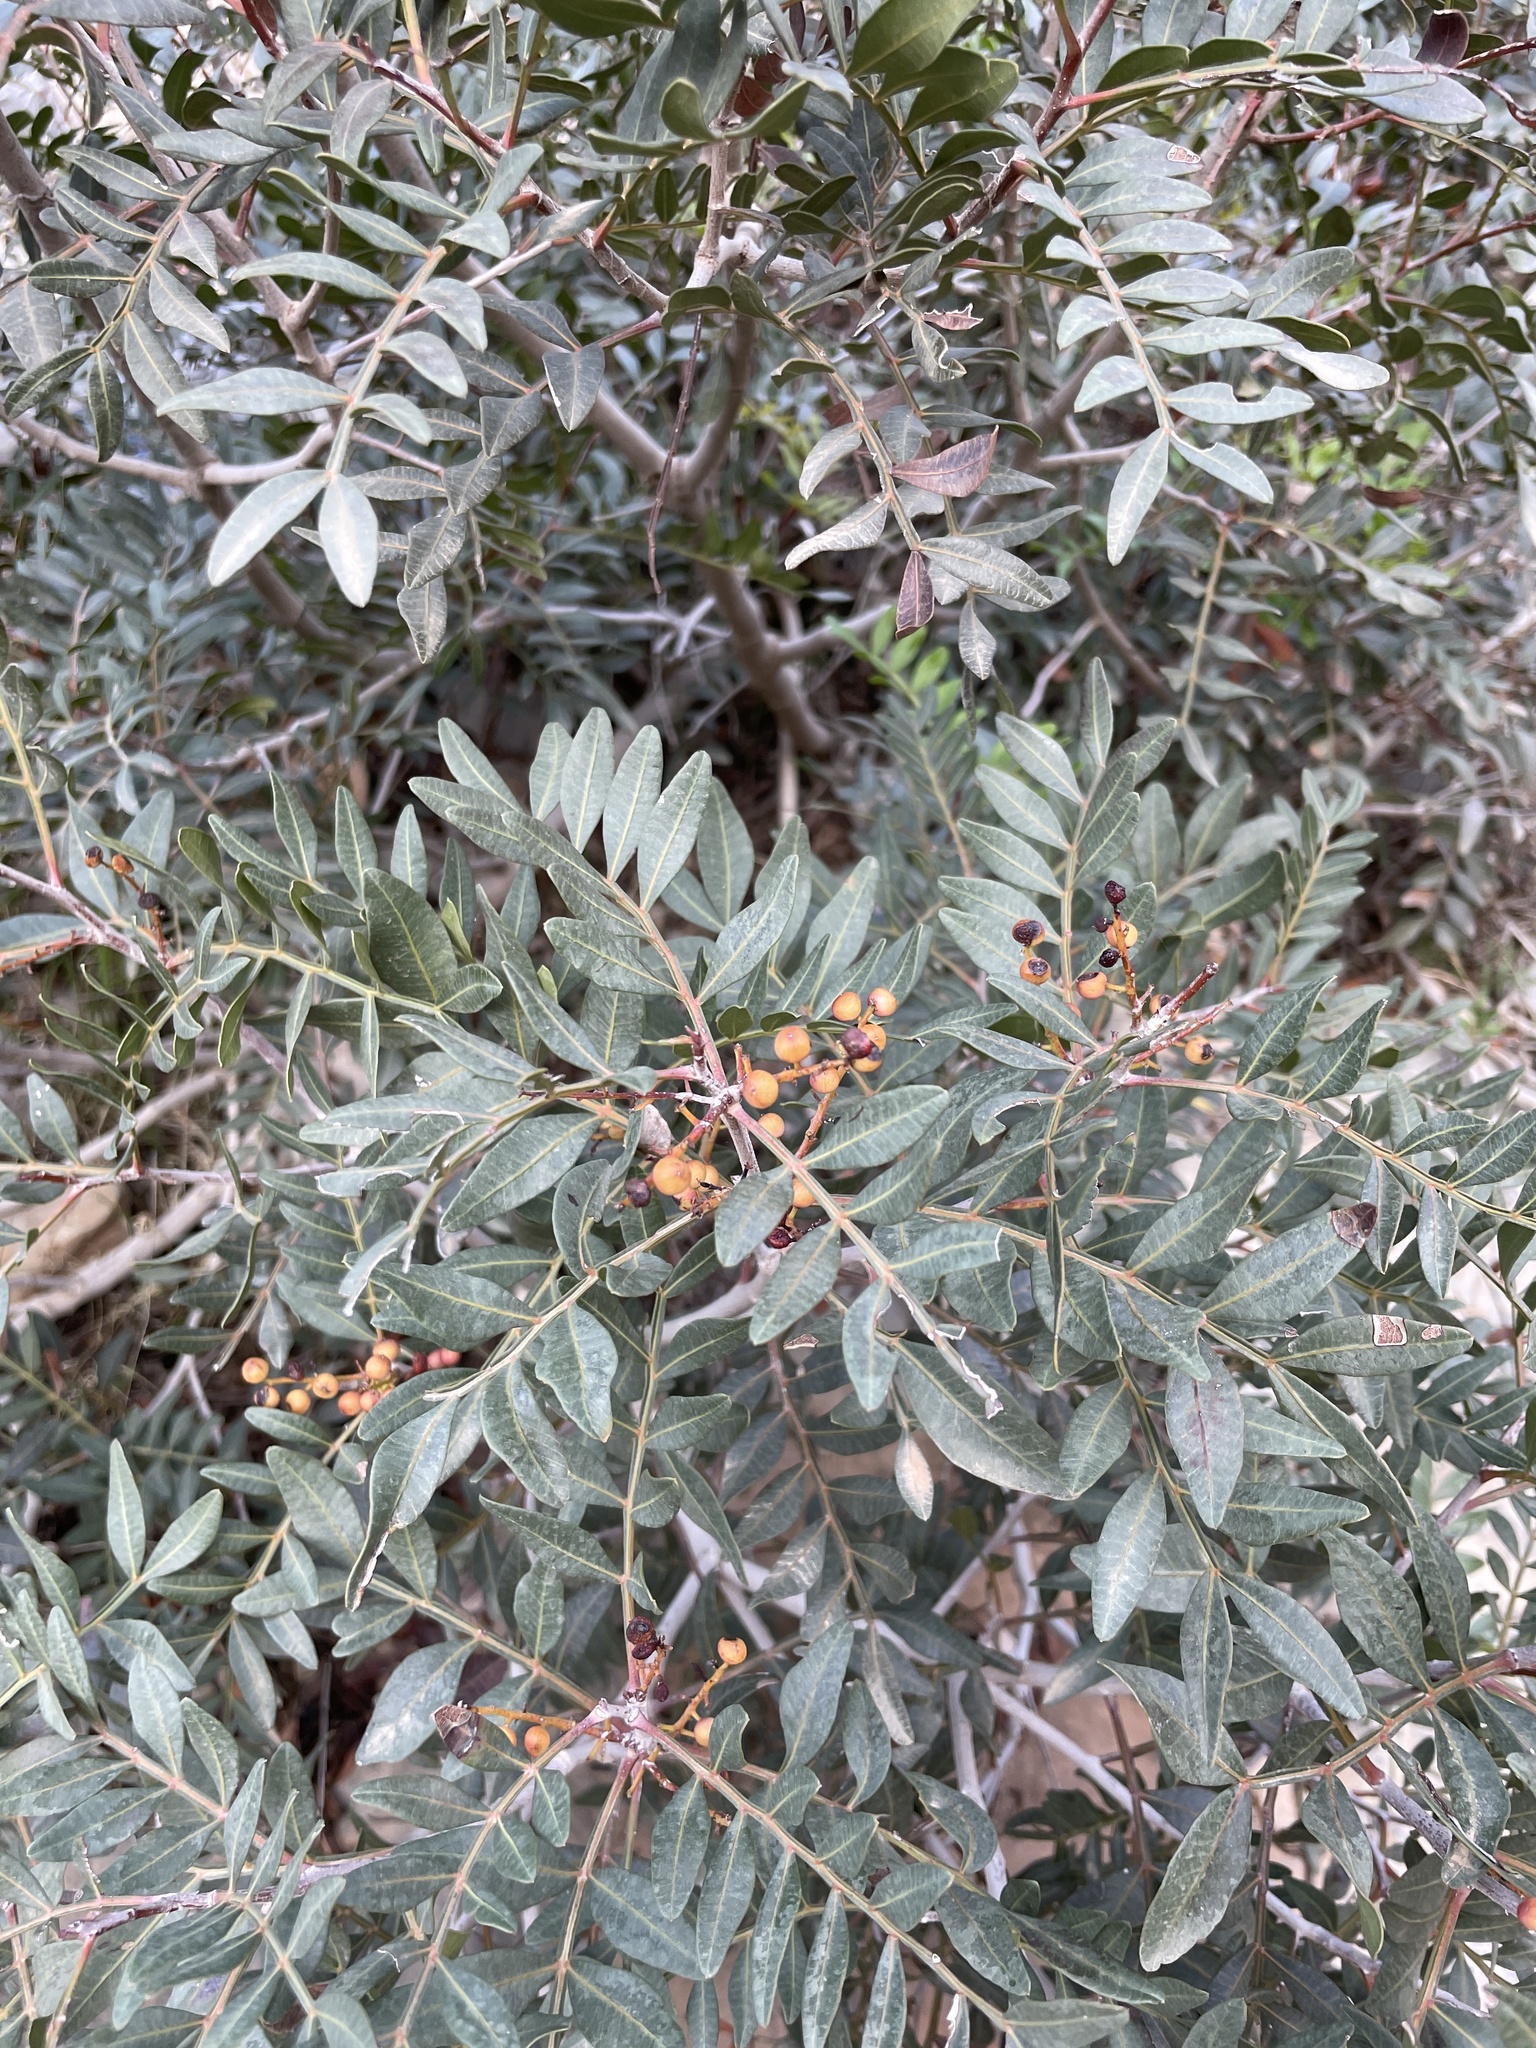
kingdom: Plantae
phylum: Tracheophyta
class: Magnoliopsida
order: Sapindales
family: Anacardiaceae
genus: Pistacia
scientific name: Pistacia atlantica
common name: Mt. atlas mastic tree
